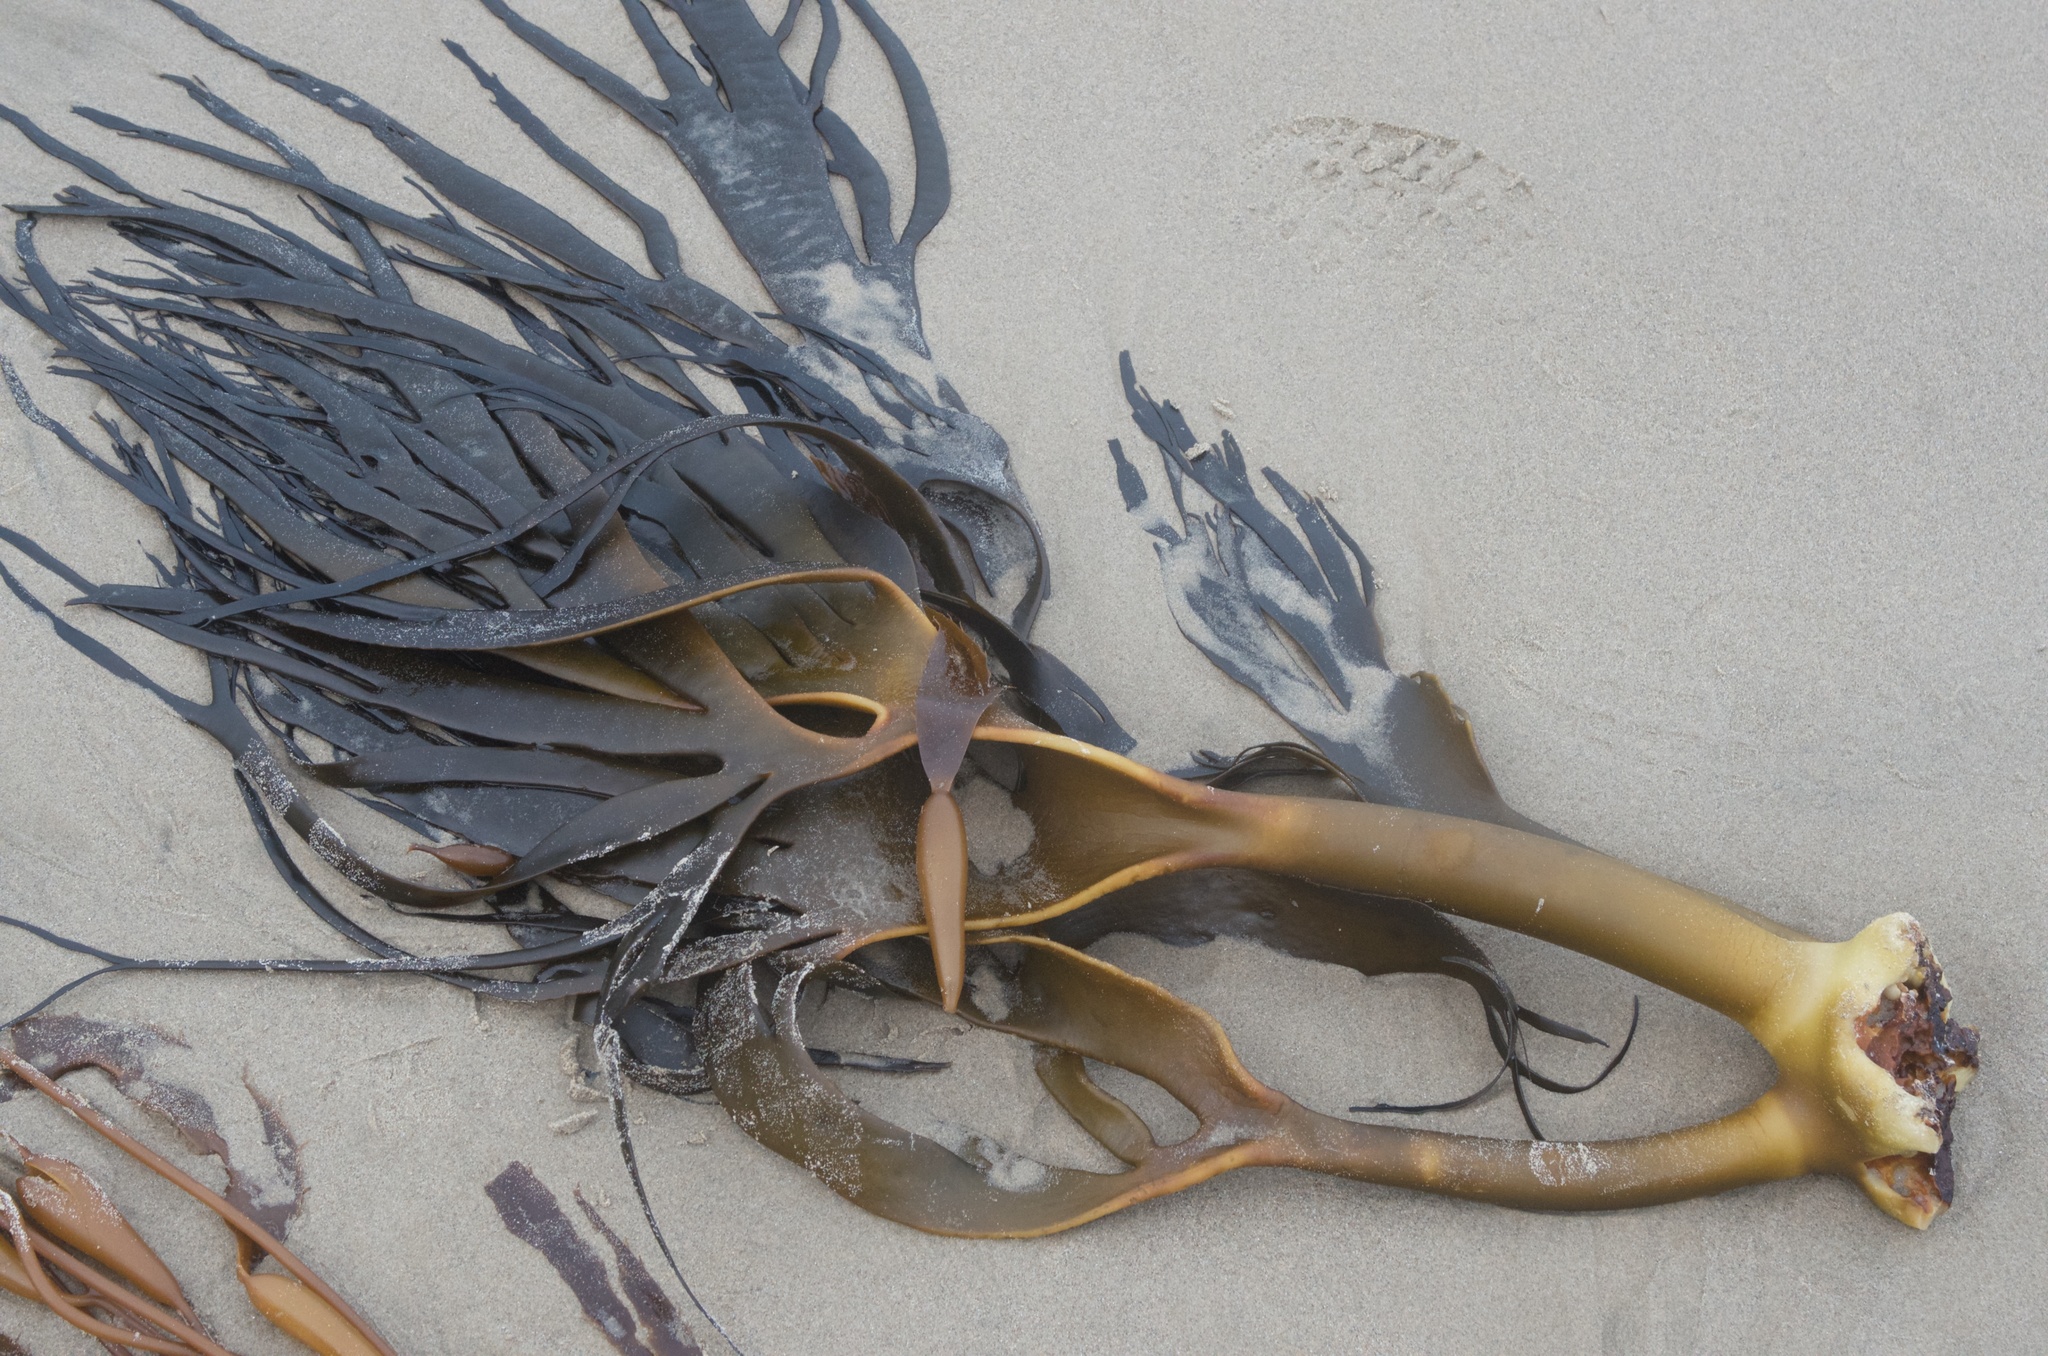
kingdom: Chromista
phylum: Ochrophyta
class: Phaeophyceae
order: Fucales
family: Durvillaeaceae
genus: Durvillaea
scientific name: Durvillaea antarctica
